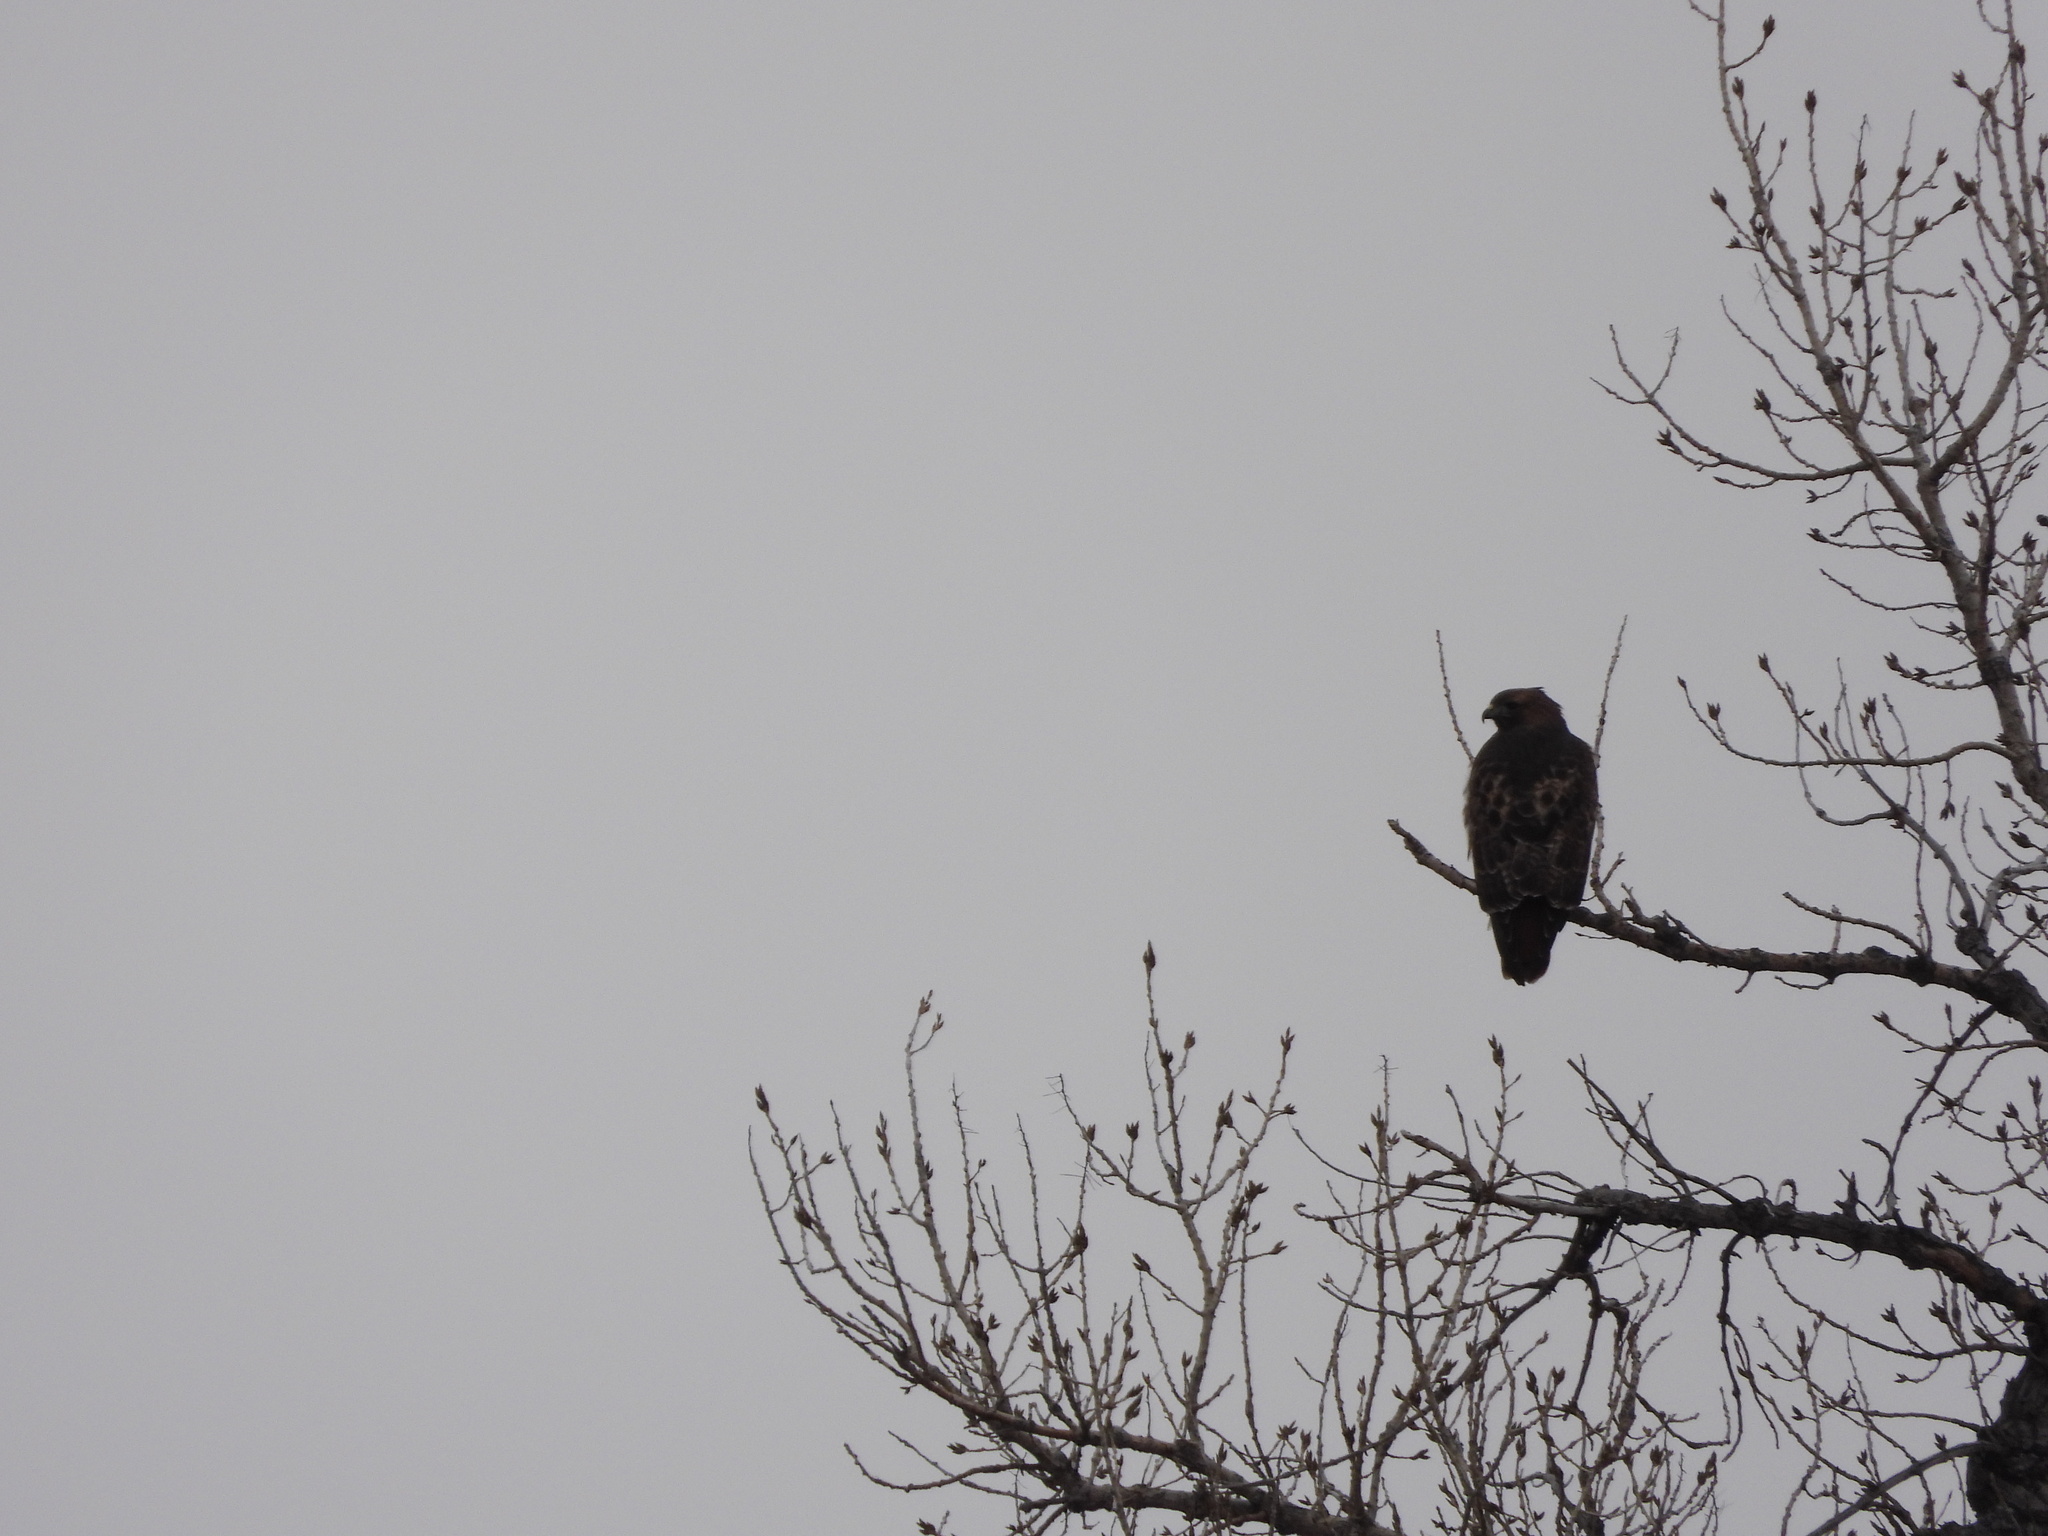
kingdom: Animalia
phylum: Chordata
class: Aves
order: Accipitriformes
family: Accipitridae
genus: Buteo
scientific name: Buteo jamaicensis
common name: Red-tailed hawk
